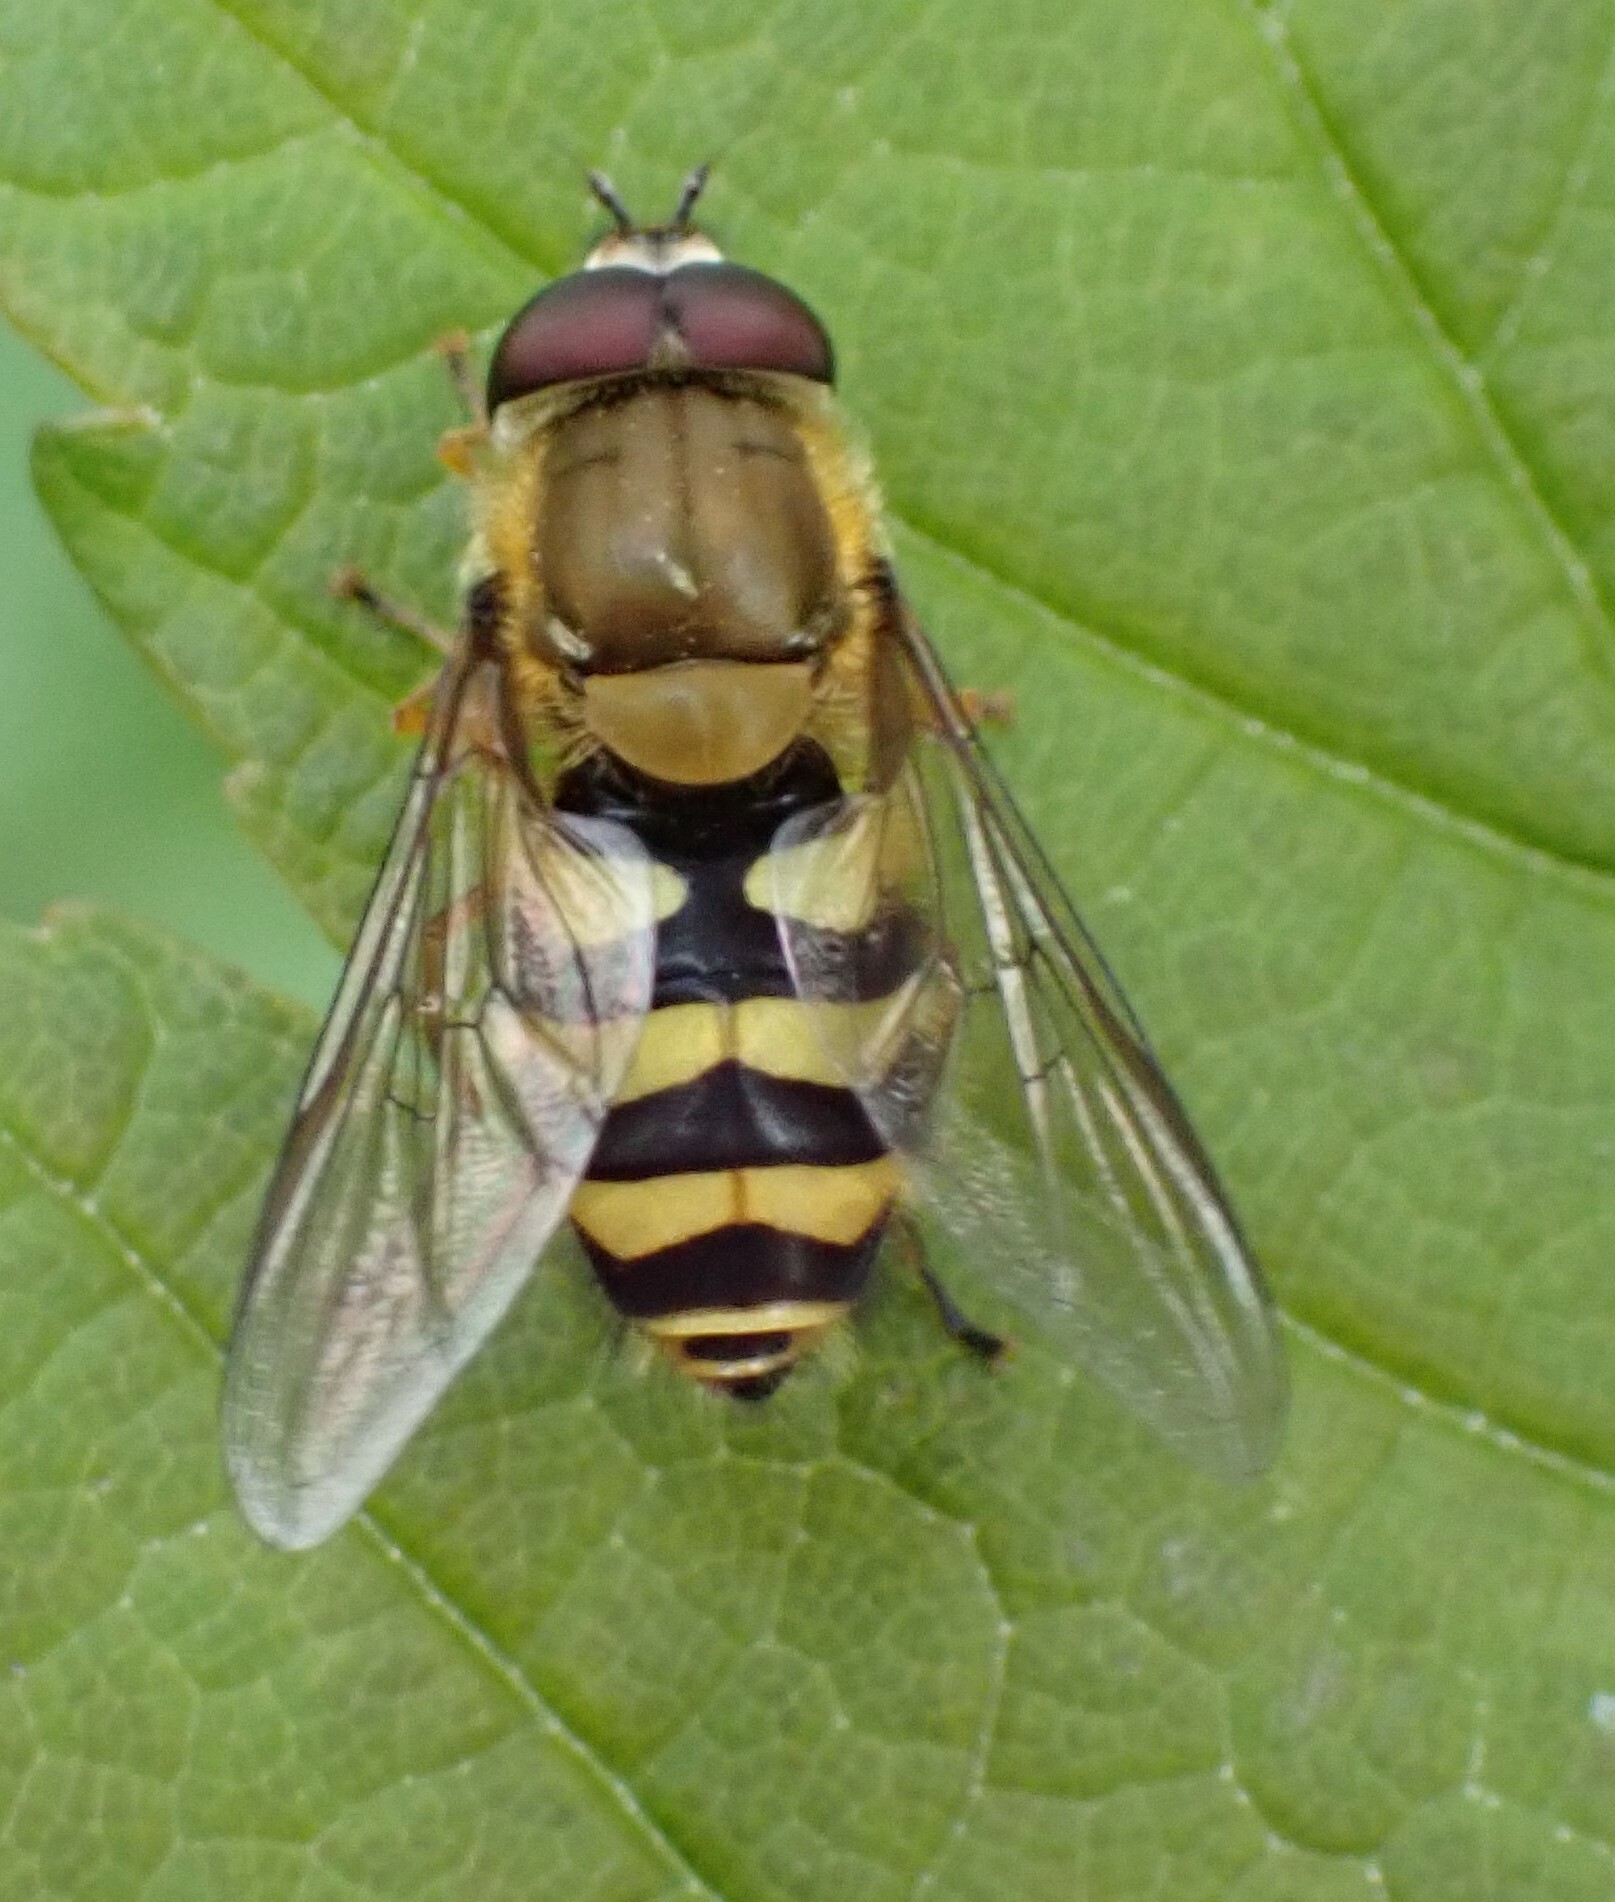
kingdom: Animalia
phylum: Arthropoda
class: Insecta
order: Diptera
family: Syrphidae
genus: Syrphus
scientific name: Syrphus
